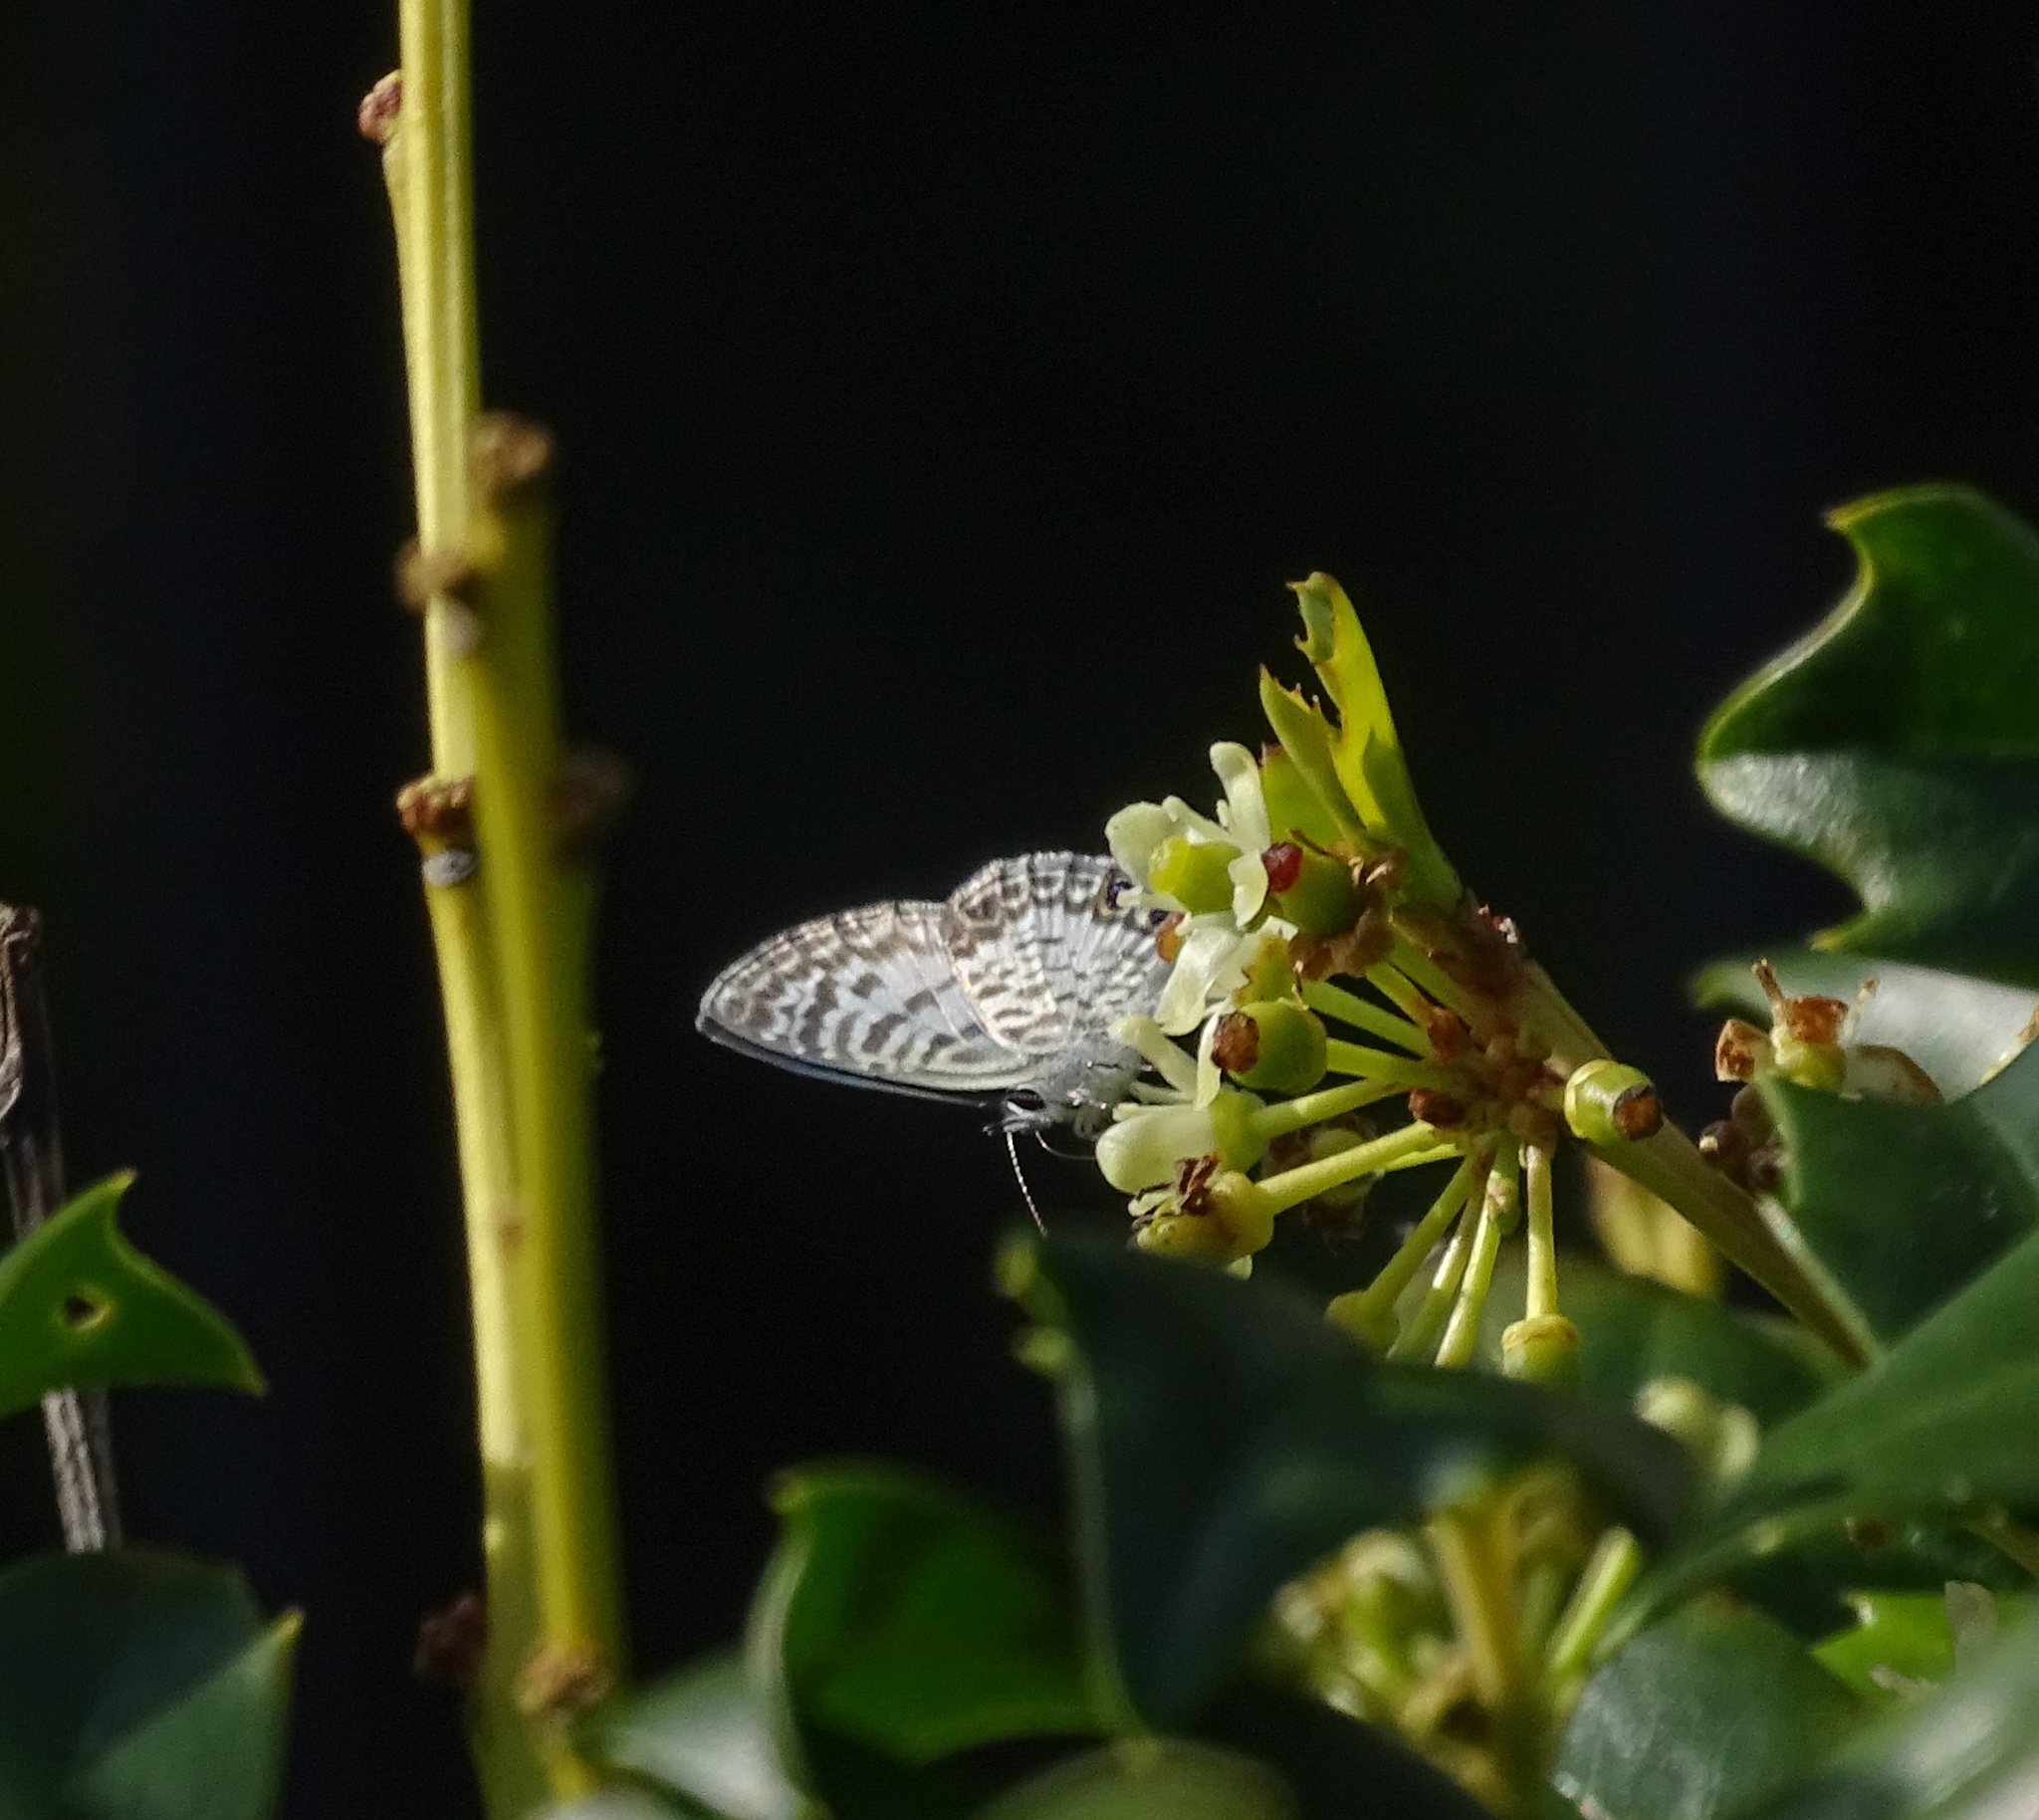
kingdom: Animalia
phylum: Arthropoda
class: Insecta
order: Lepidoptera
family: Lycaenidae
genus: Leptotes
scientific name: Leptotes cassius
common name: Cassius blue
